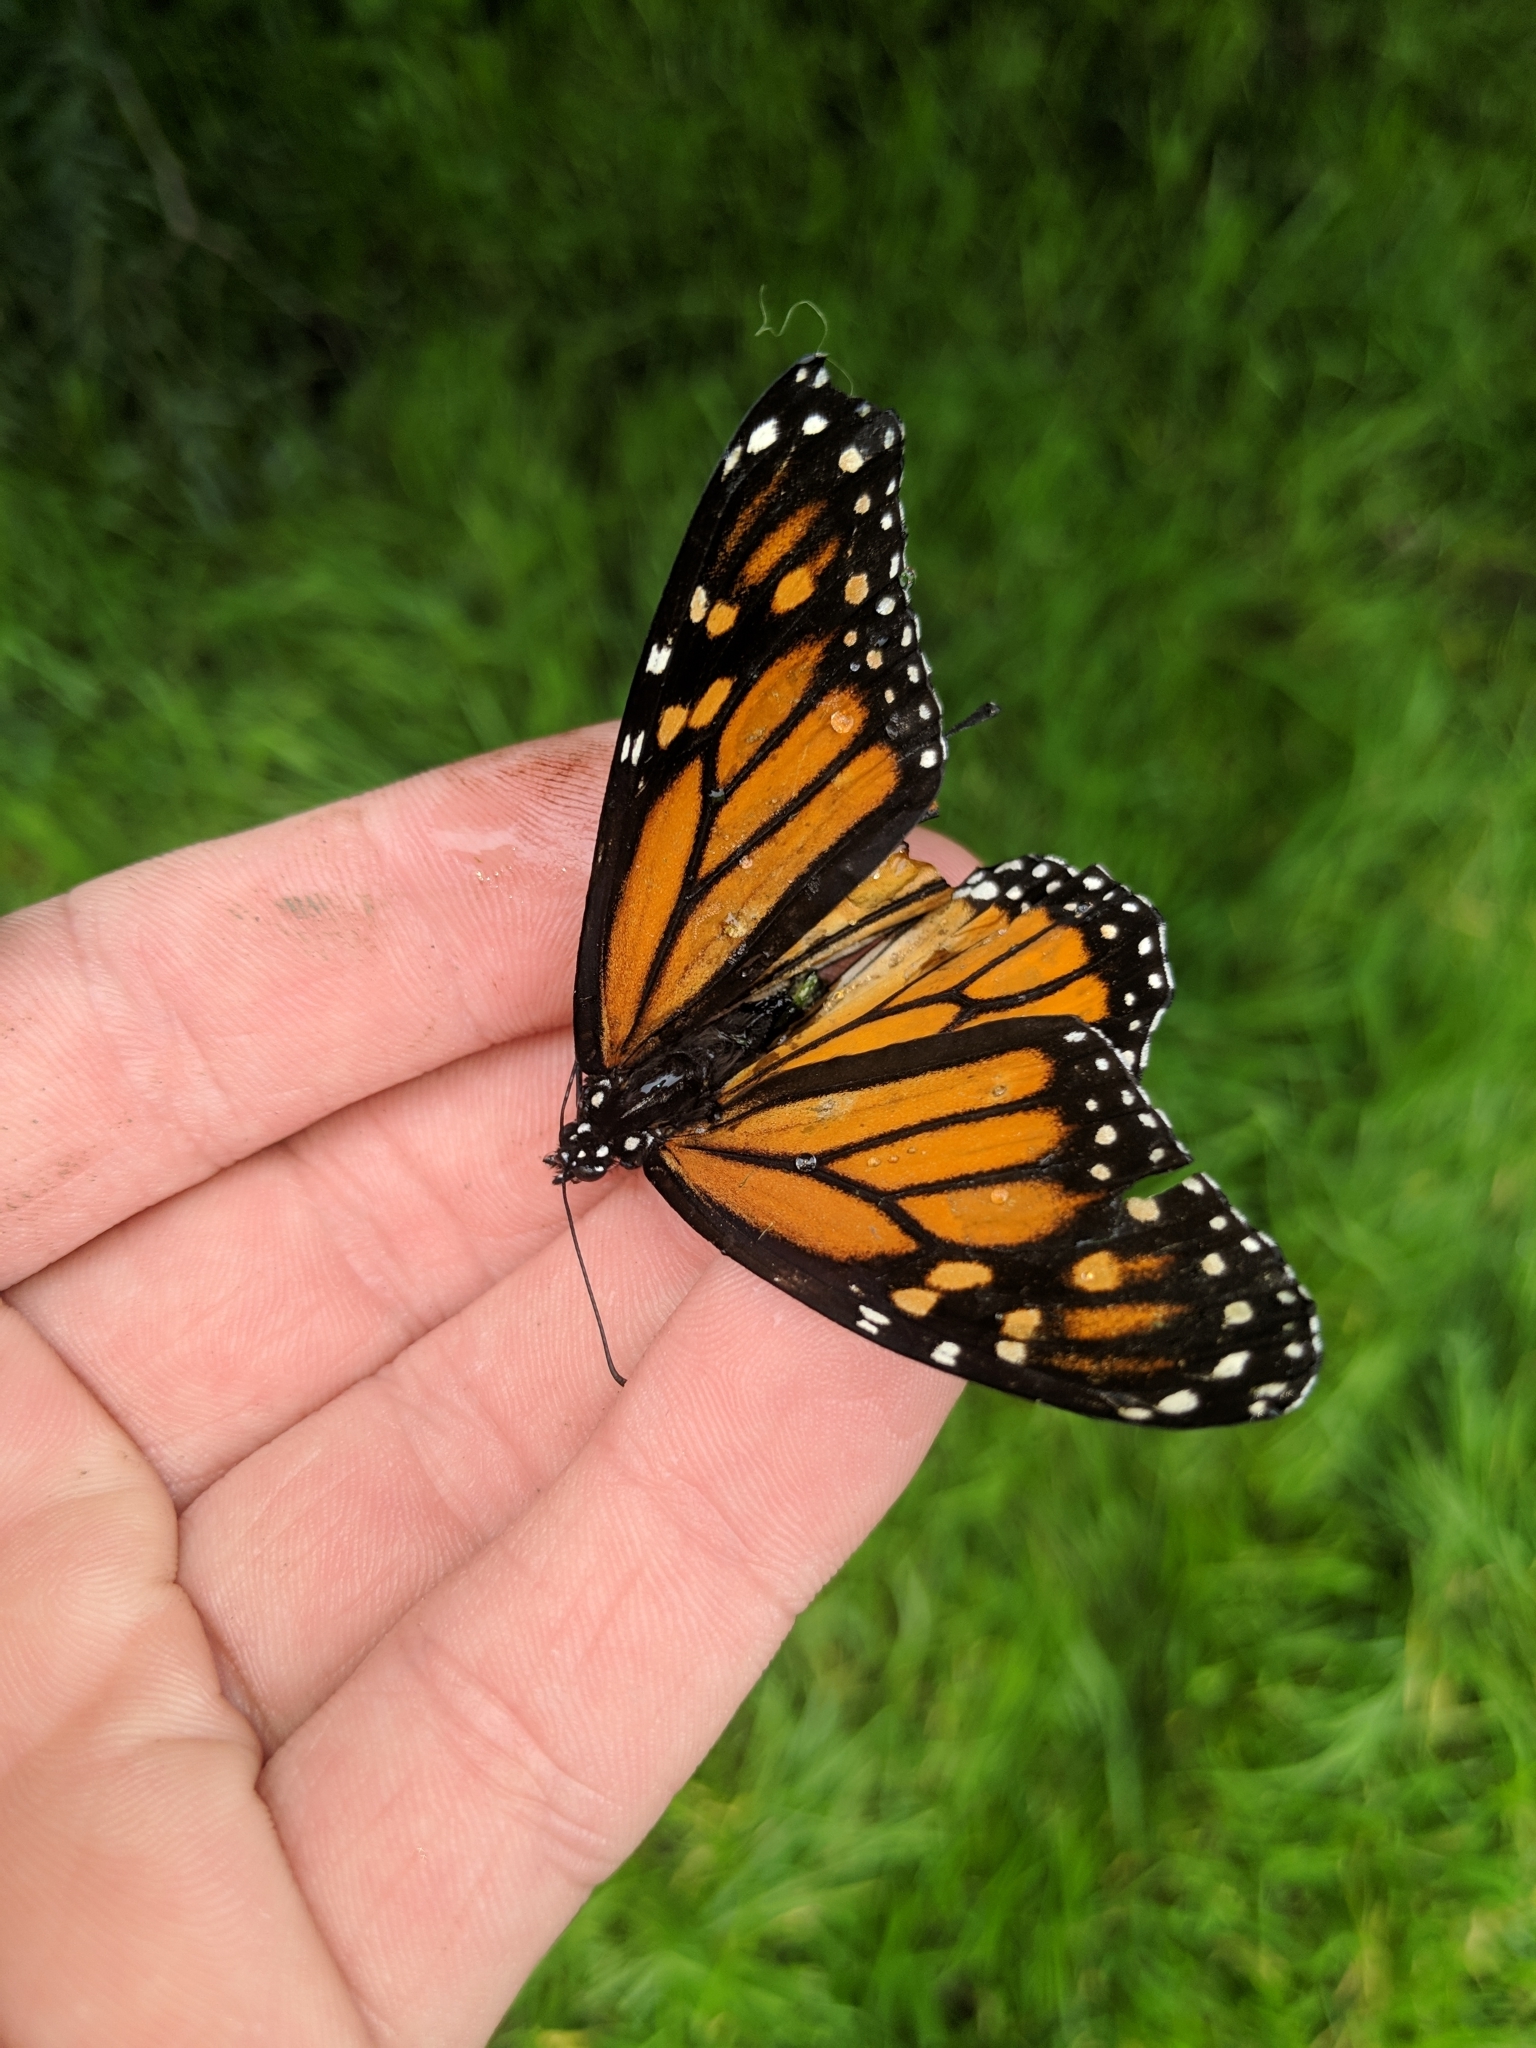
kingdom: Animalia
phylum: Arthropoda
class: Insecta
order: Lepidoptera
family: Nymphalidae
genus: Danaus
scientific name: Danaus plexippus
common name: Monarch
